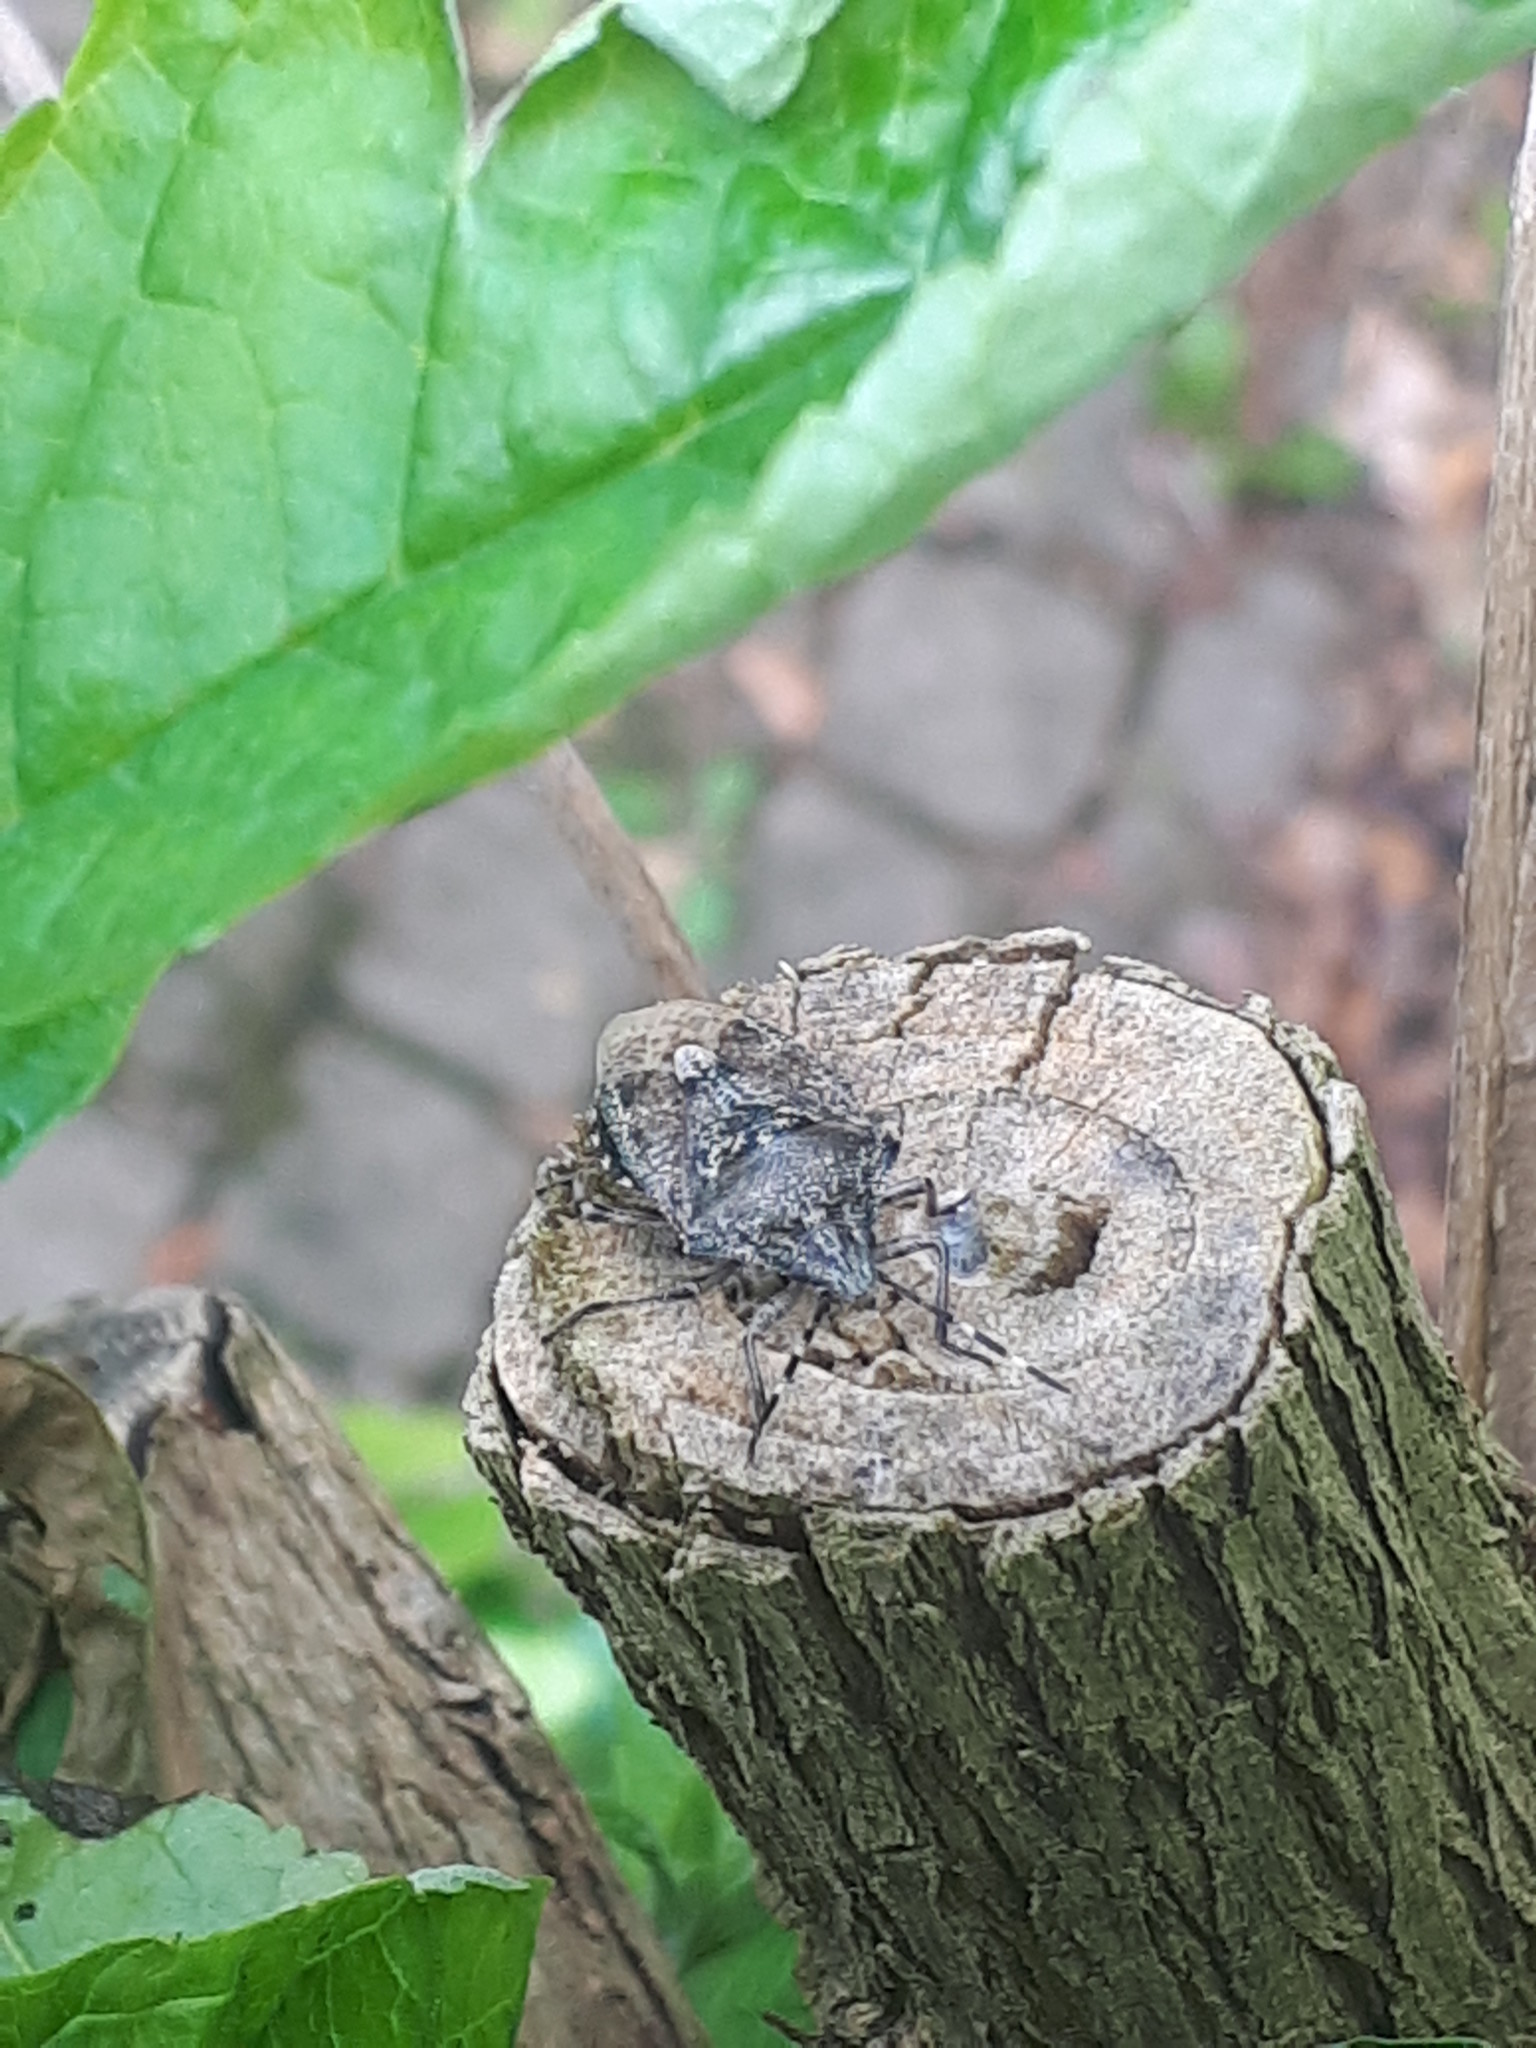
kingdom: Animalia
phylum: Arthropoda
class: Insecta
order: Hemiptera
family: Pentatomidae
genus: Rhaphigaster
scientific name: Rhaphigaster nebulosa
